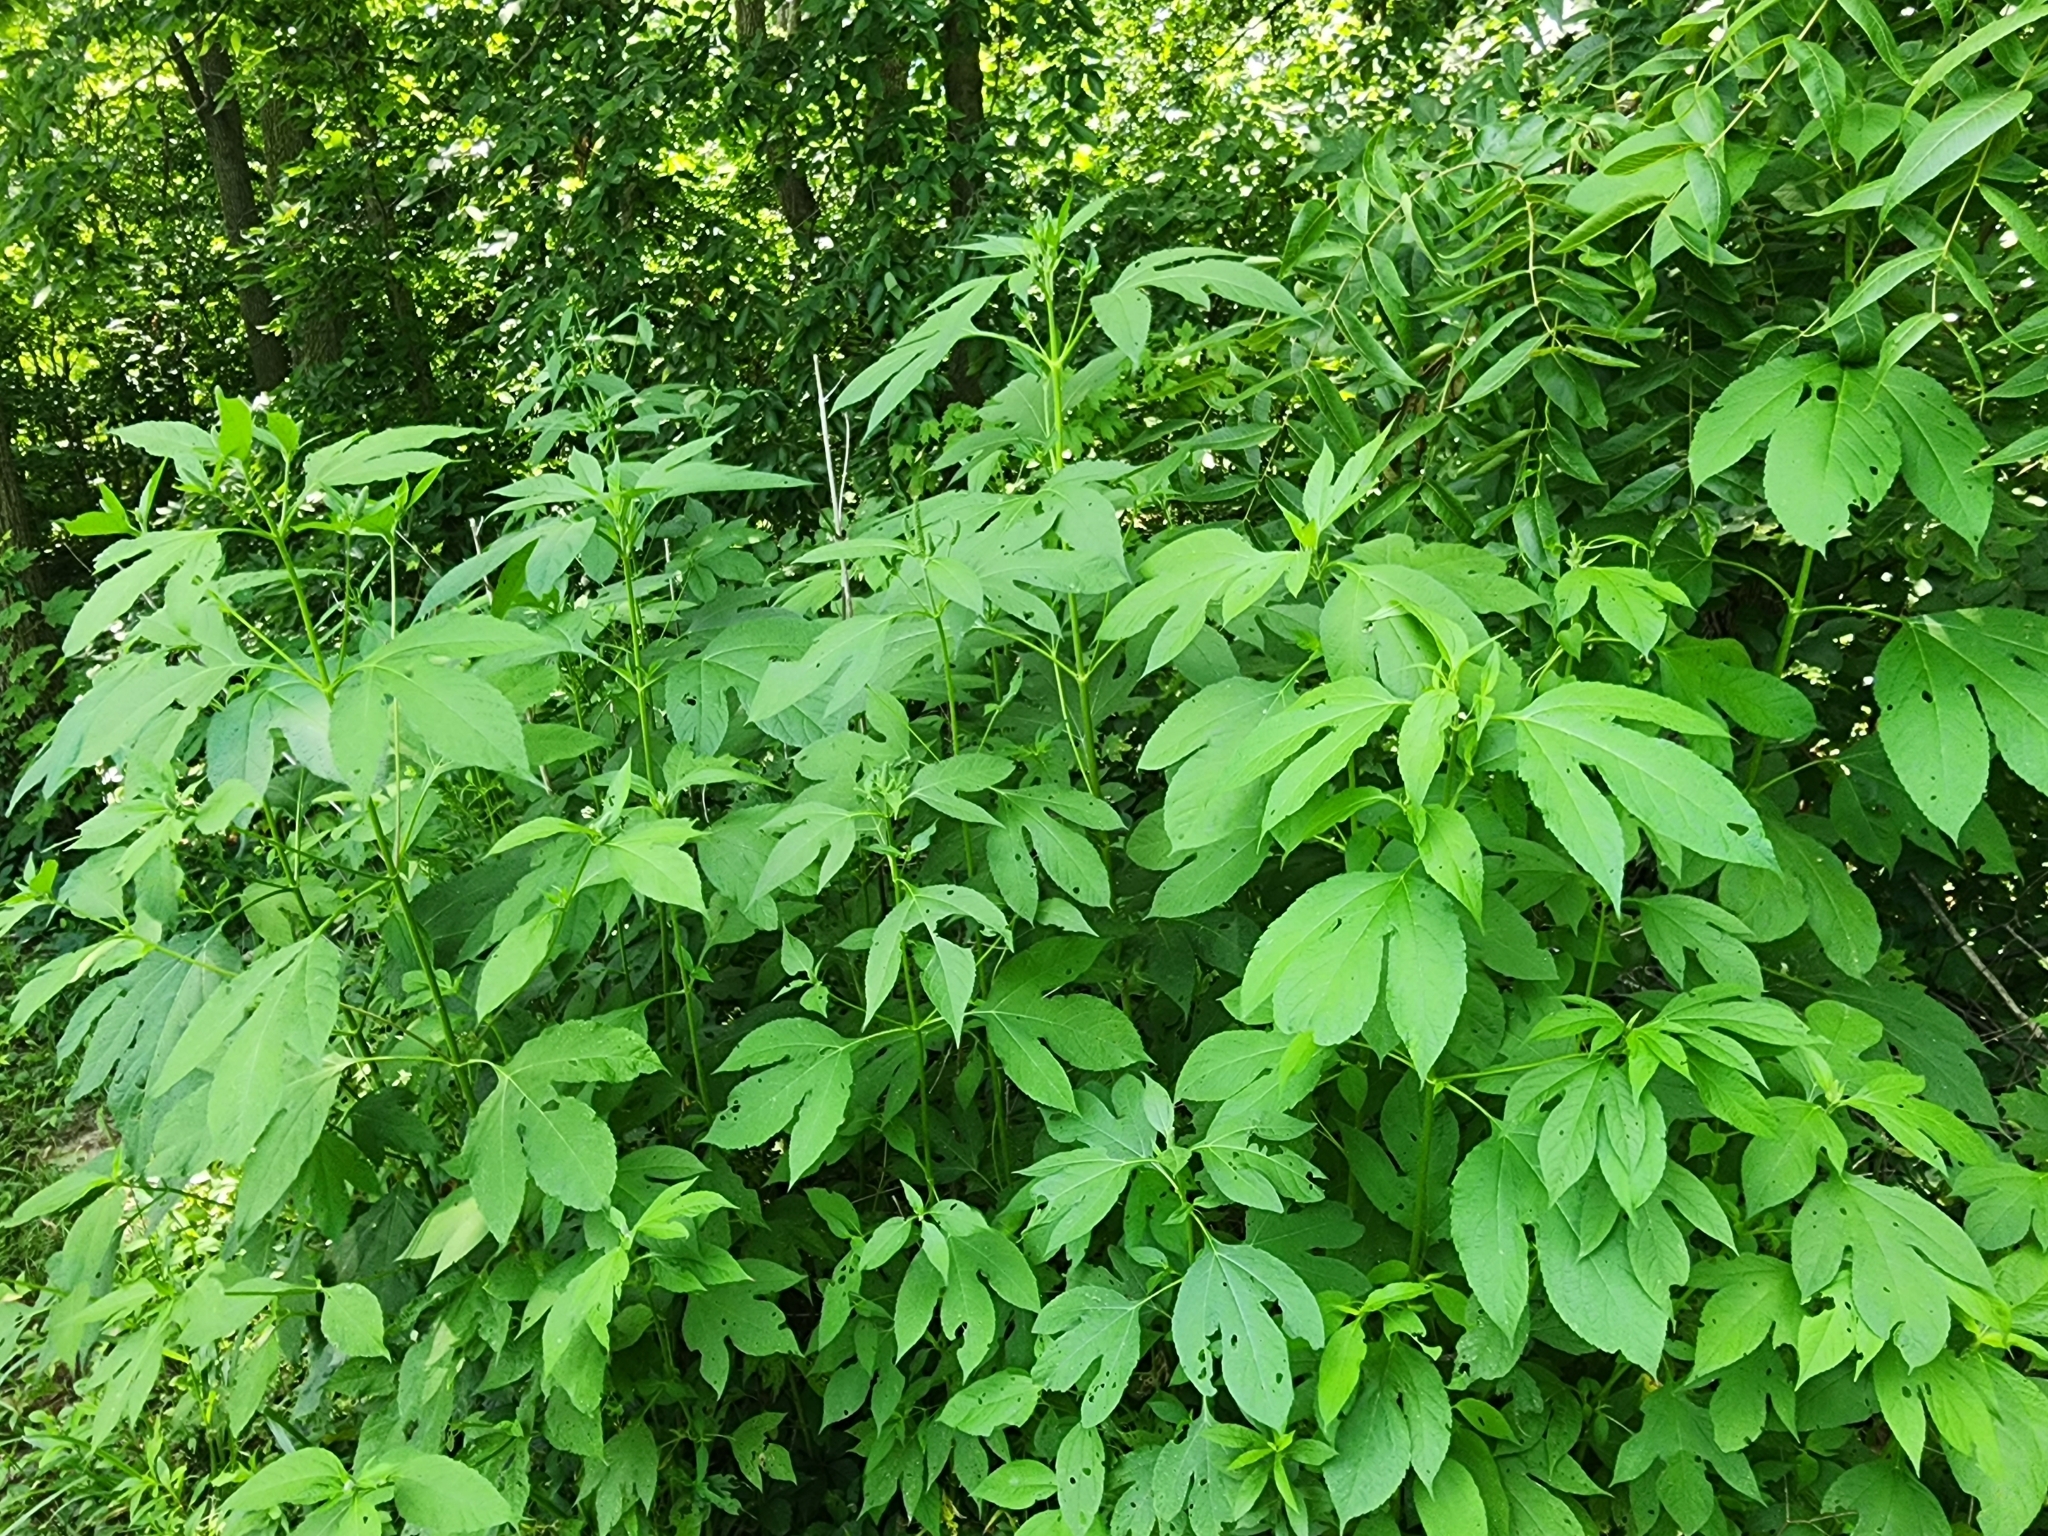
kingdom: Plantae
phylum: Tracheophyta
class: Magnoliopsida
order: Asterales
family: Asteraceae
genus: Ambrosia
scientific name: Ambrosia trifida
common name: Giant ragweed
